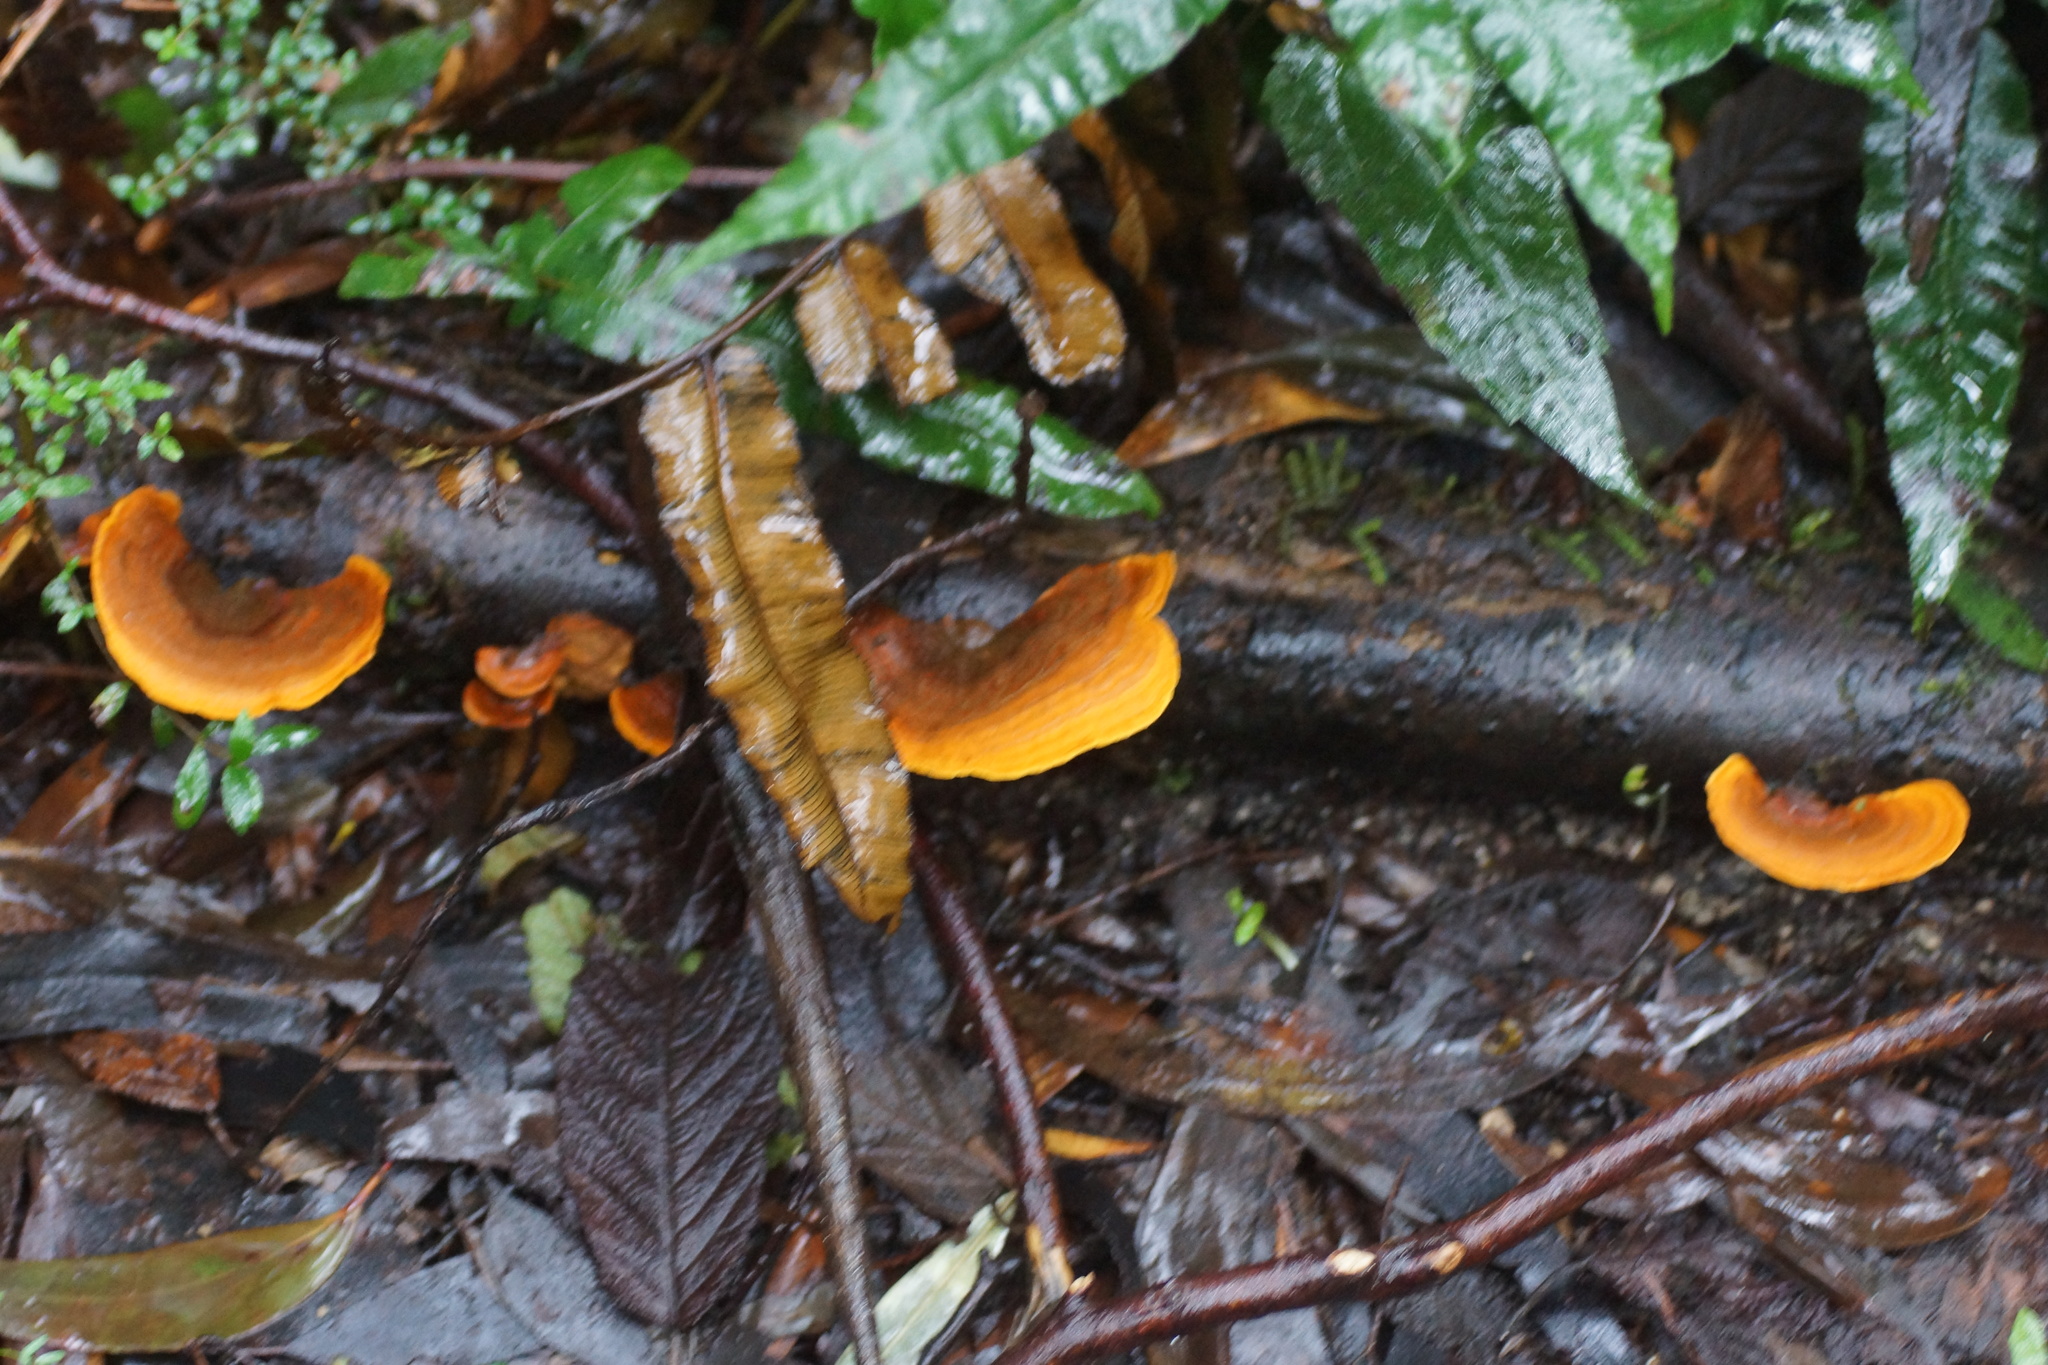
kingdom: Fungi
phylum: Basidiomycota
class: Agaricomycetes
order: Russulales
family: Stereaceae
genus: Stereum
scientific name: Stereum versicolor
